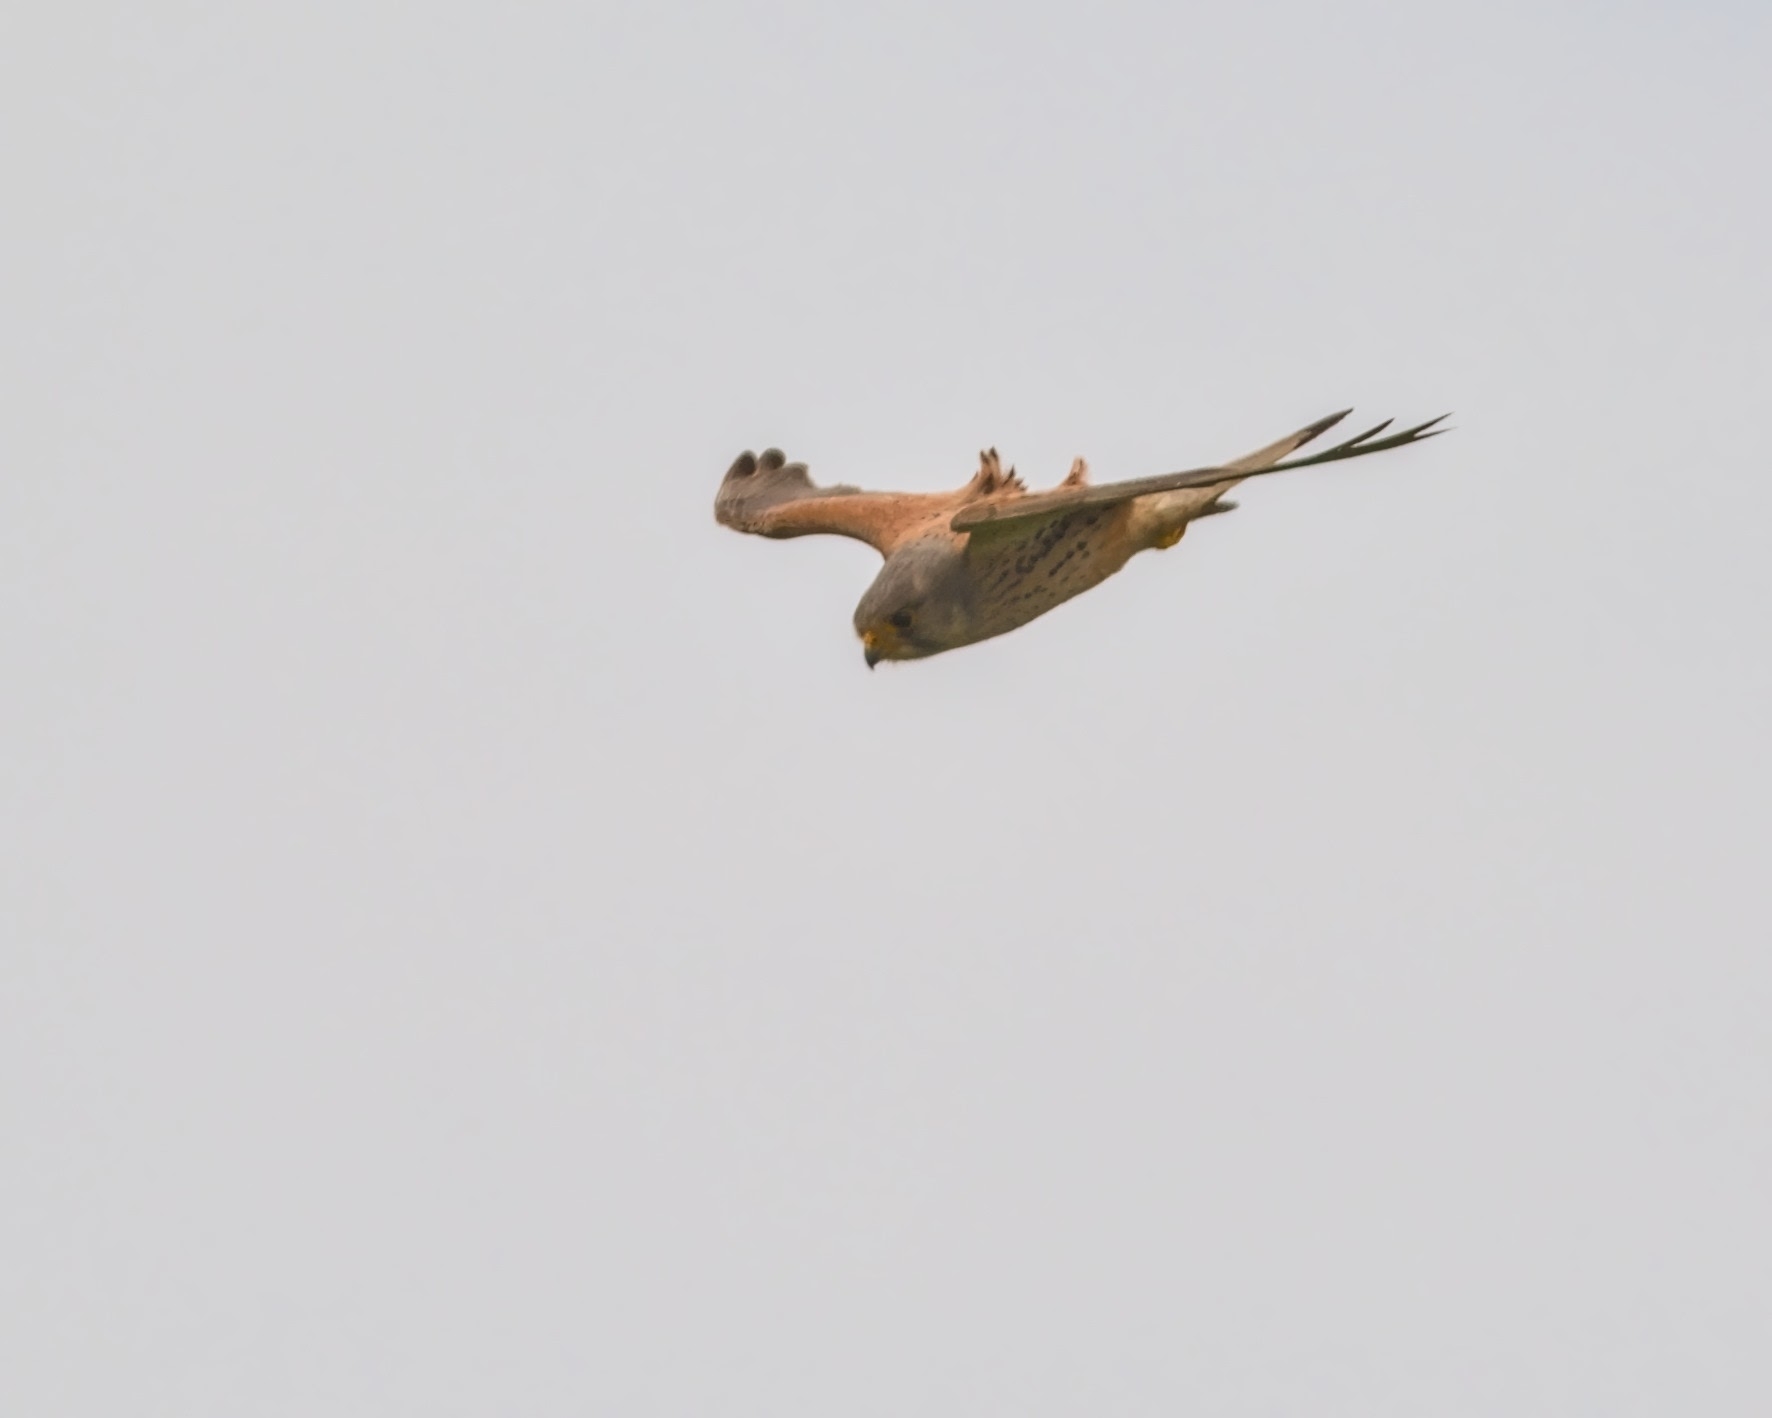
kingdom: Animalia
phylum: Chordata
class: Aves
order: Falconiformes
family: Falconidae
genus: Falco
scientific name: Falco tinnunculus
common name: Common kestrel
